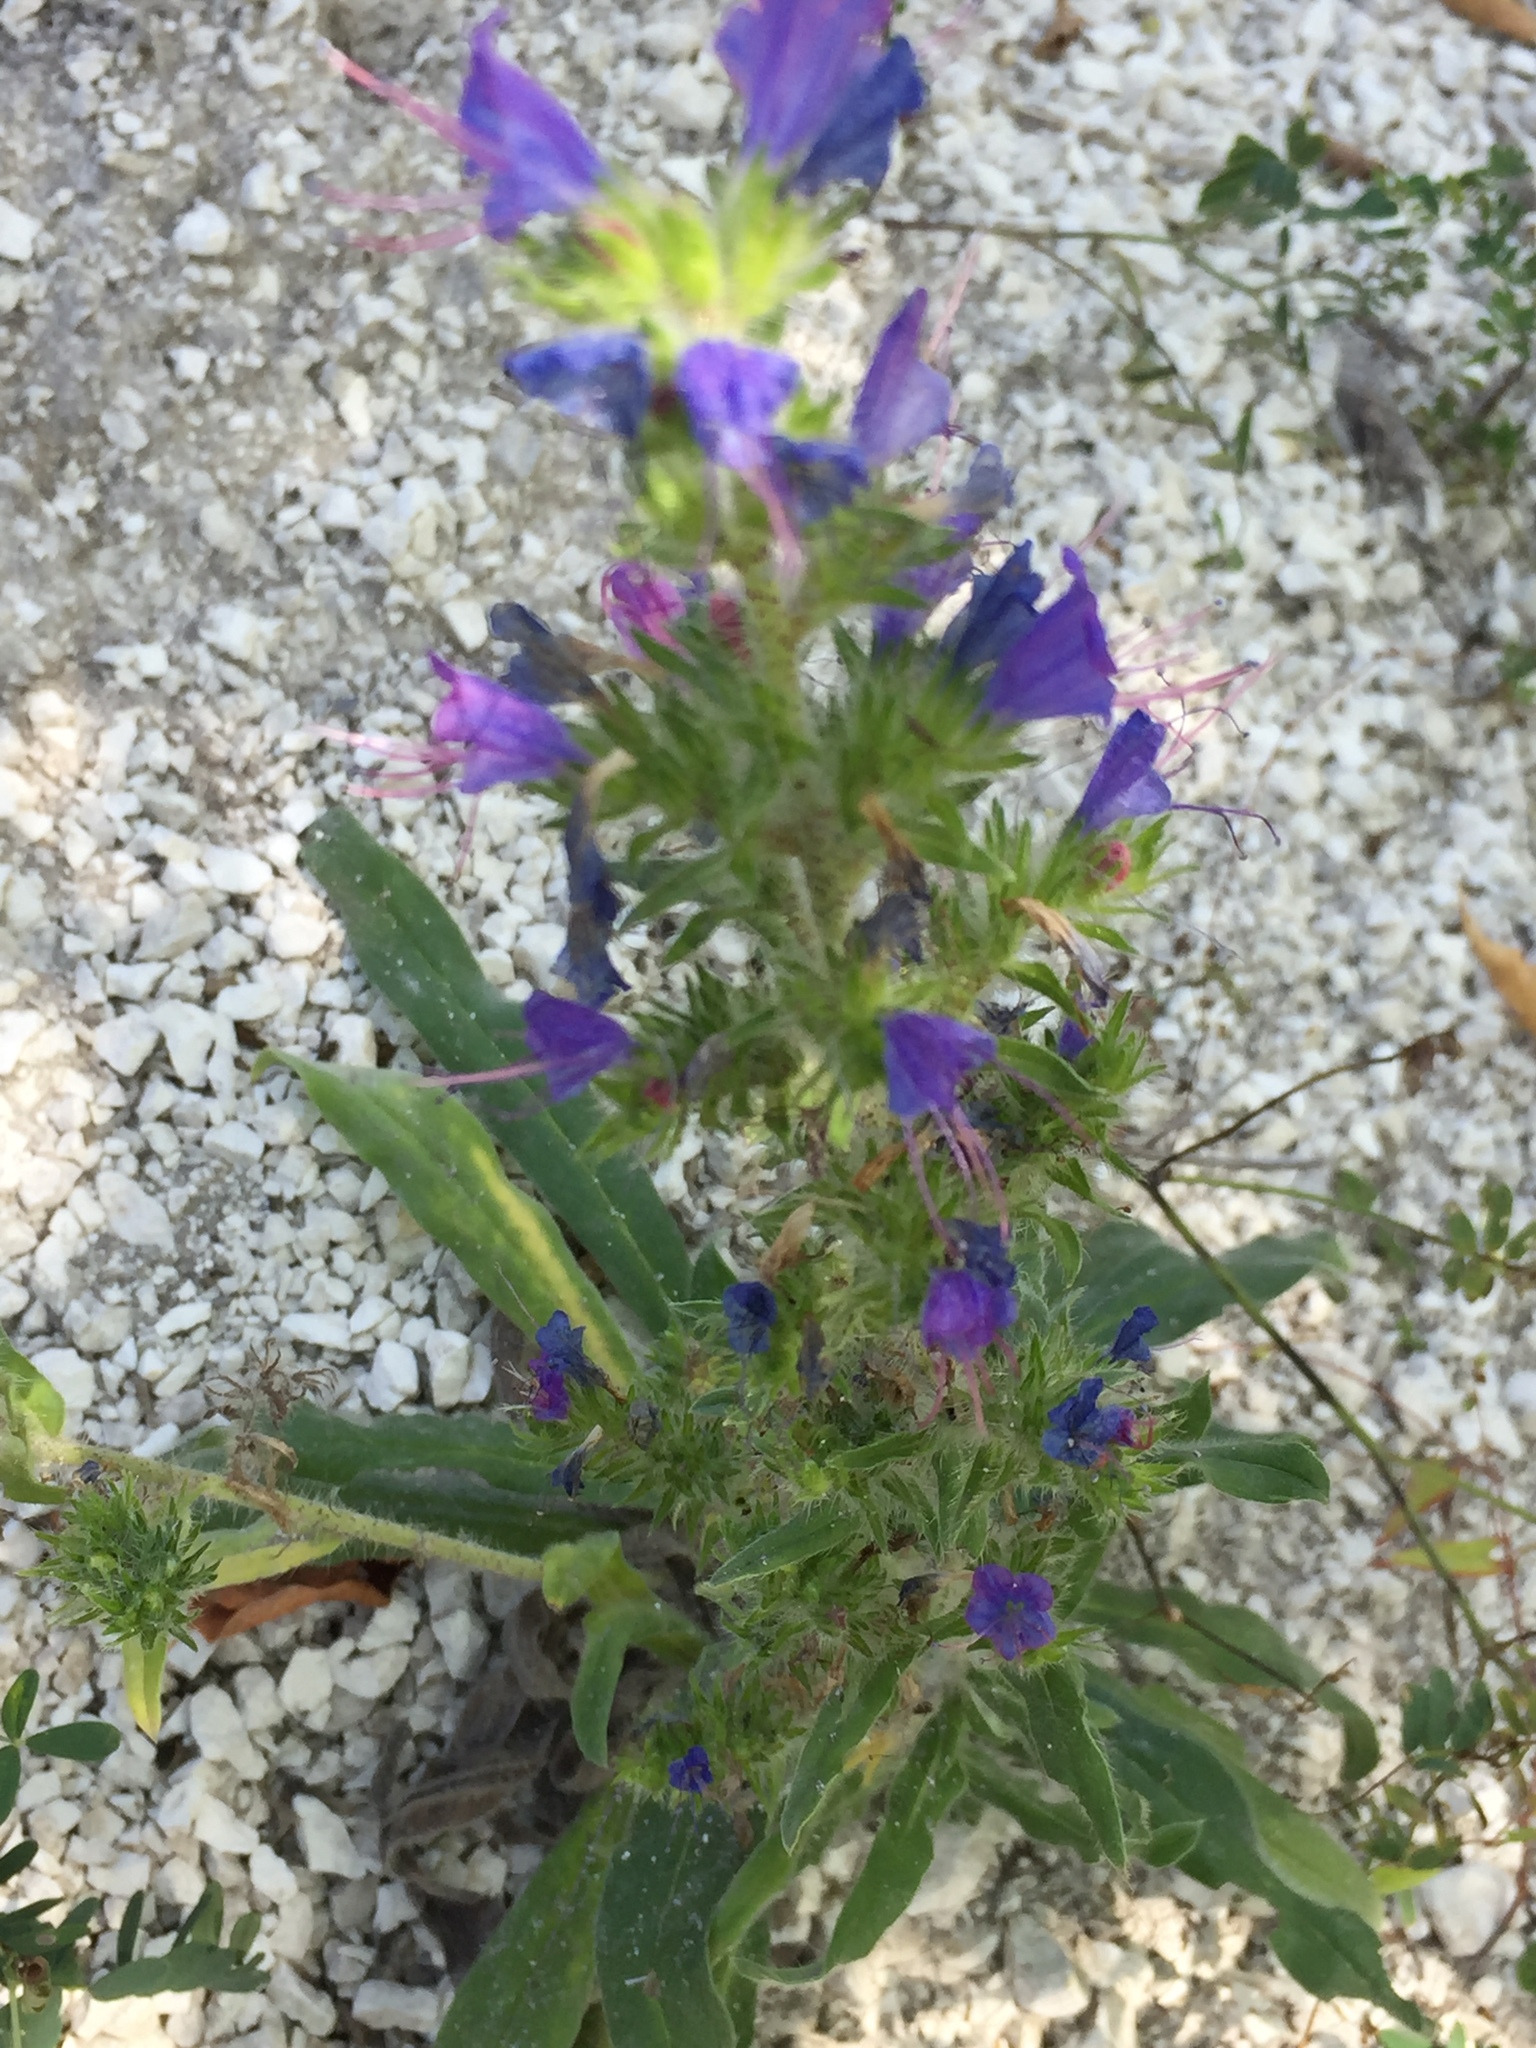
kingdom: Plantae
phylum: Tracheophyta
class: Magnoliopsida
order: Boraginales
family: Boraginaceae
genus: Echium
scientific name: Echium vulgare
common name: Common viper's bugloss
